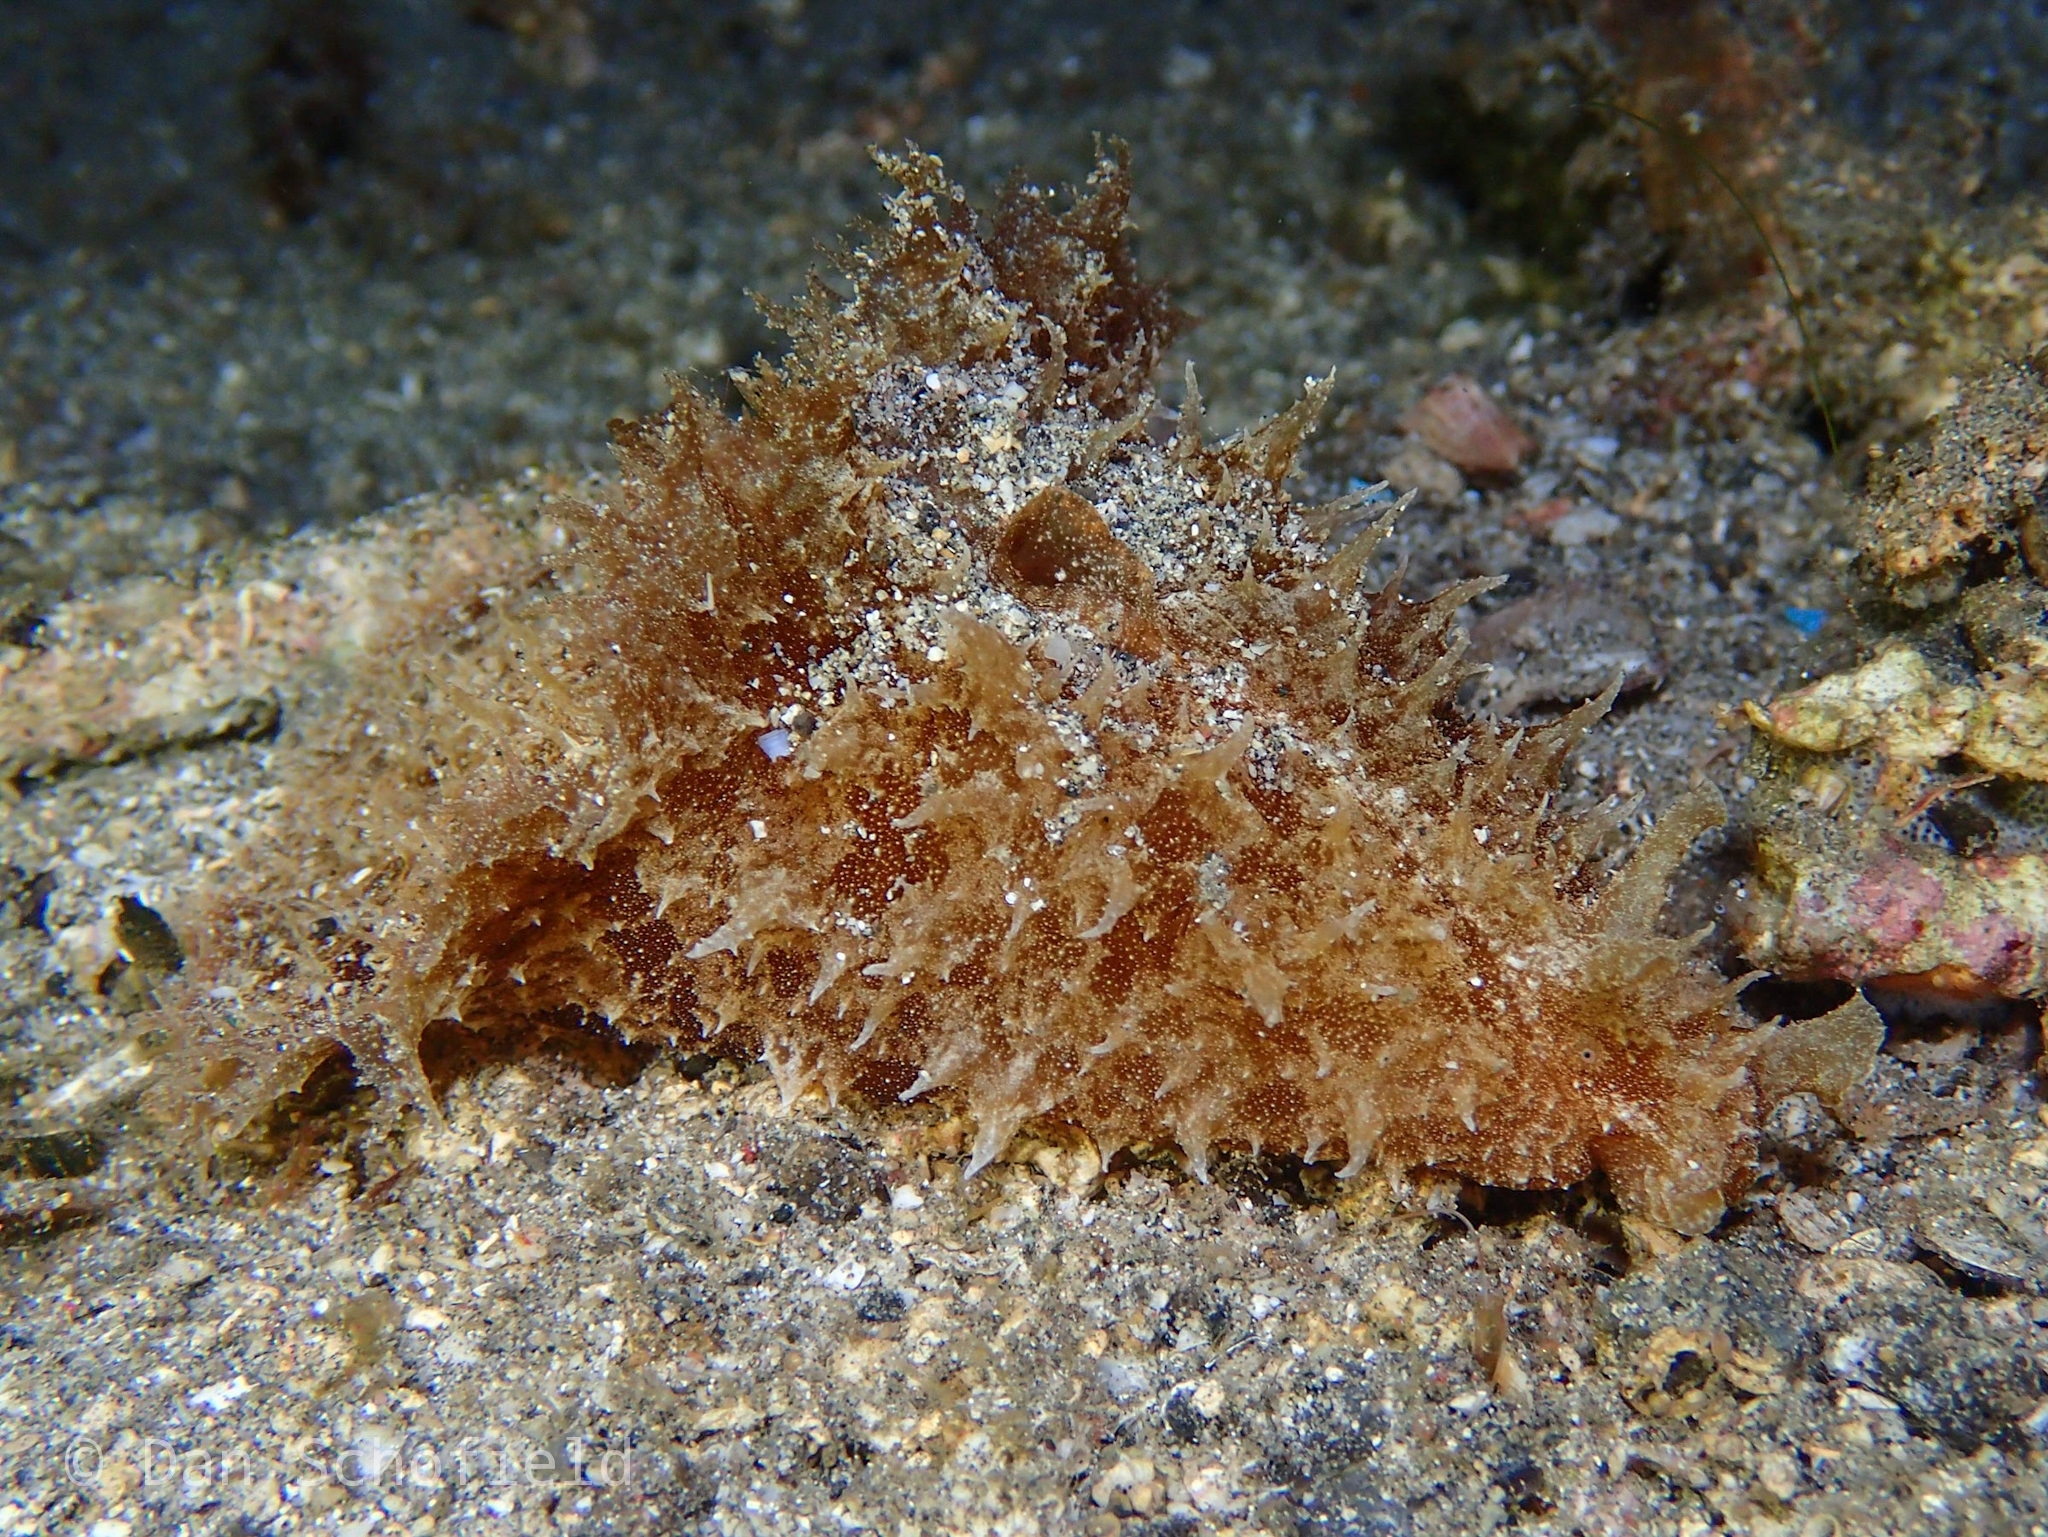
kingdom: Animalia
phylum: Mollusca
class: Gastropoda
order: Aplysiida
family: Aplysiidae
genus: Dolabella
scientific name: Dolabella auricularia
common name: Blunt-end seahare
